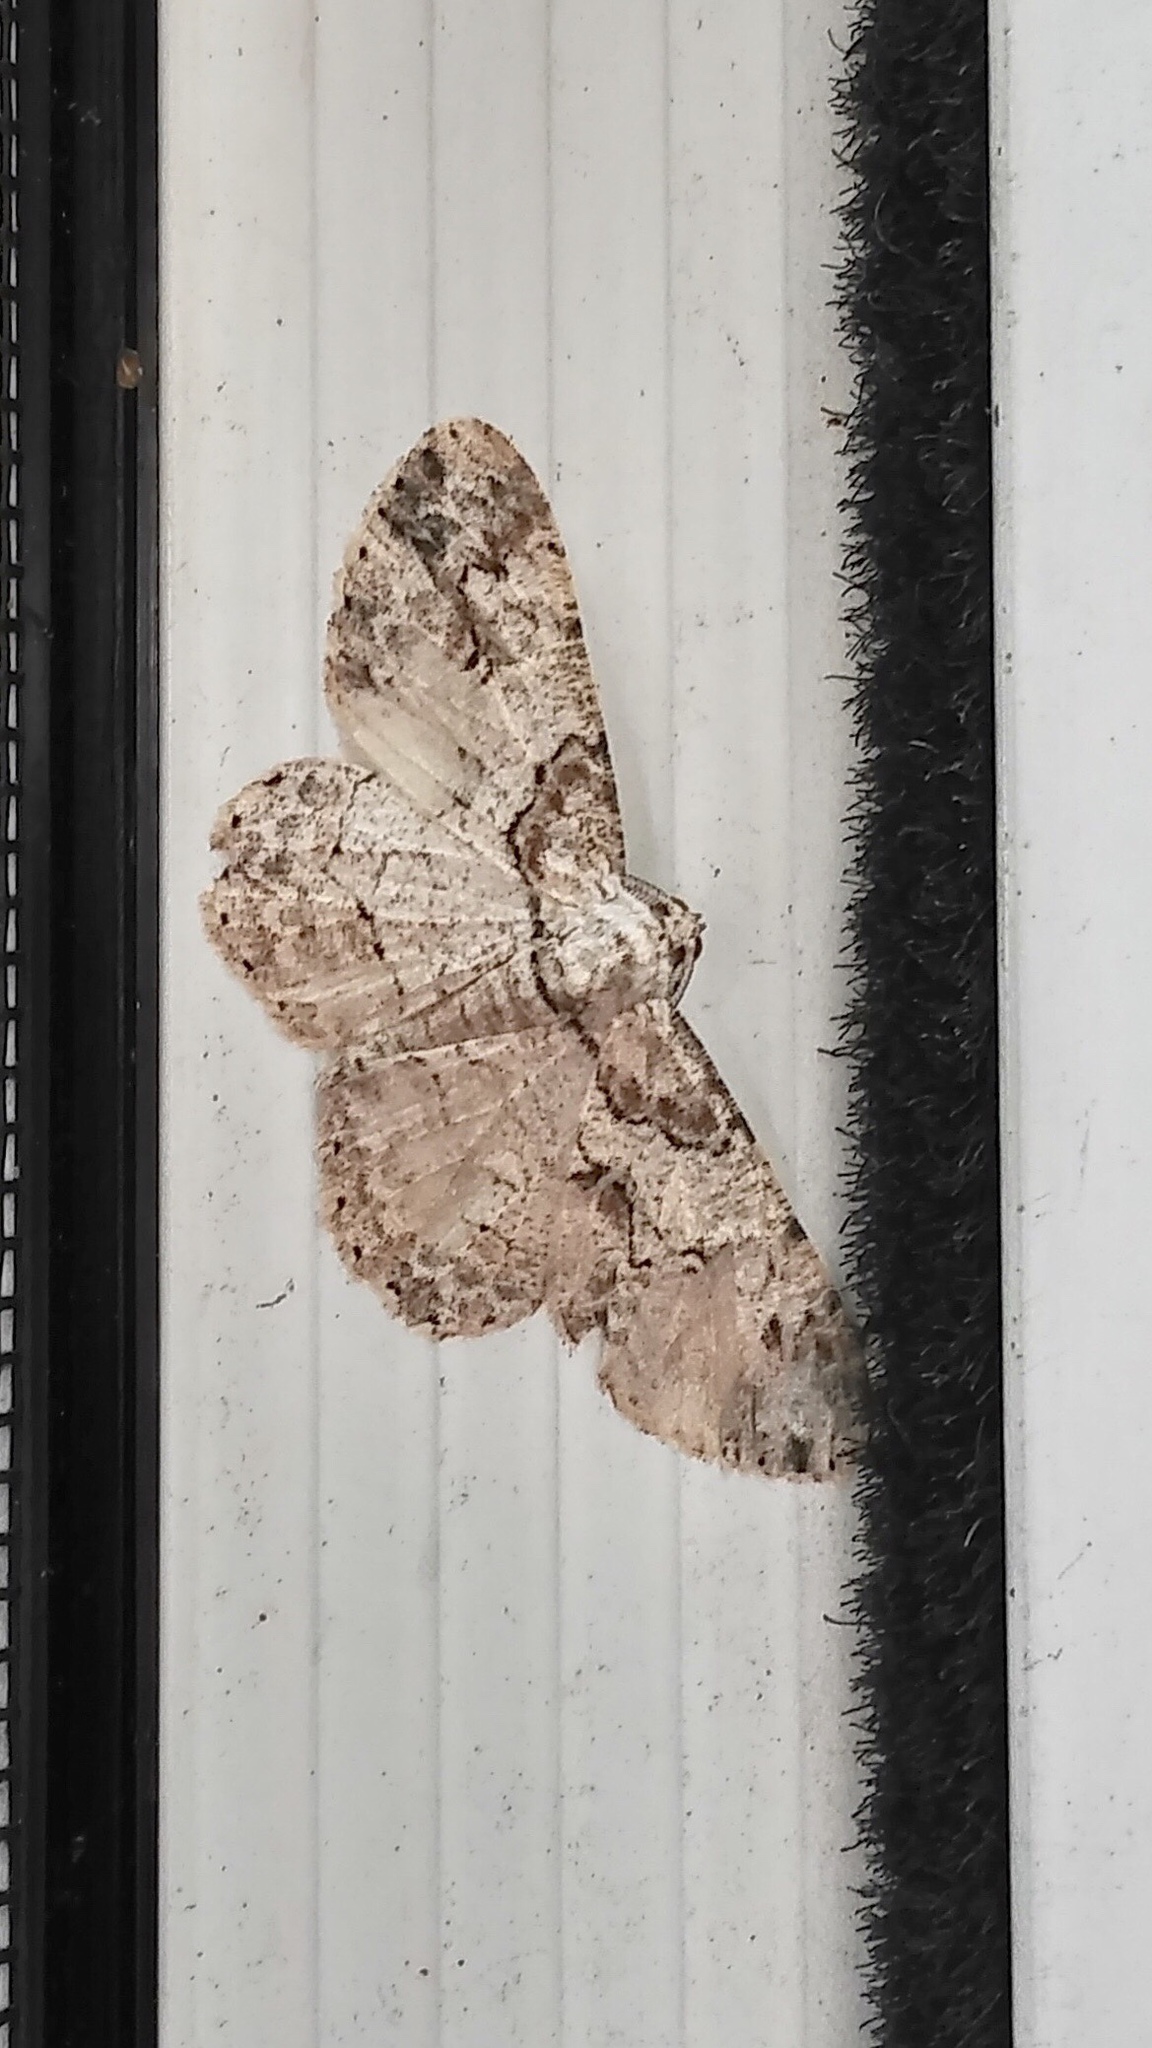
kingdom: Animalia
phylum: Arthropoda
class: Insecta
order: Lepidoptera
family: Geometridae
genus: Iridopsis
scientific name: Iridopsis defectaria
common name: Brown-shaded gray
